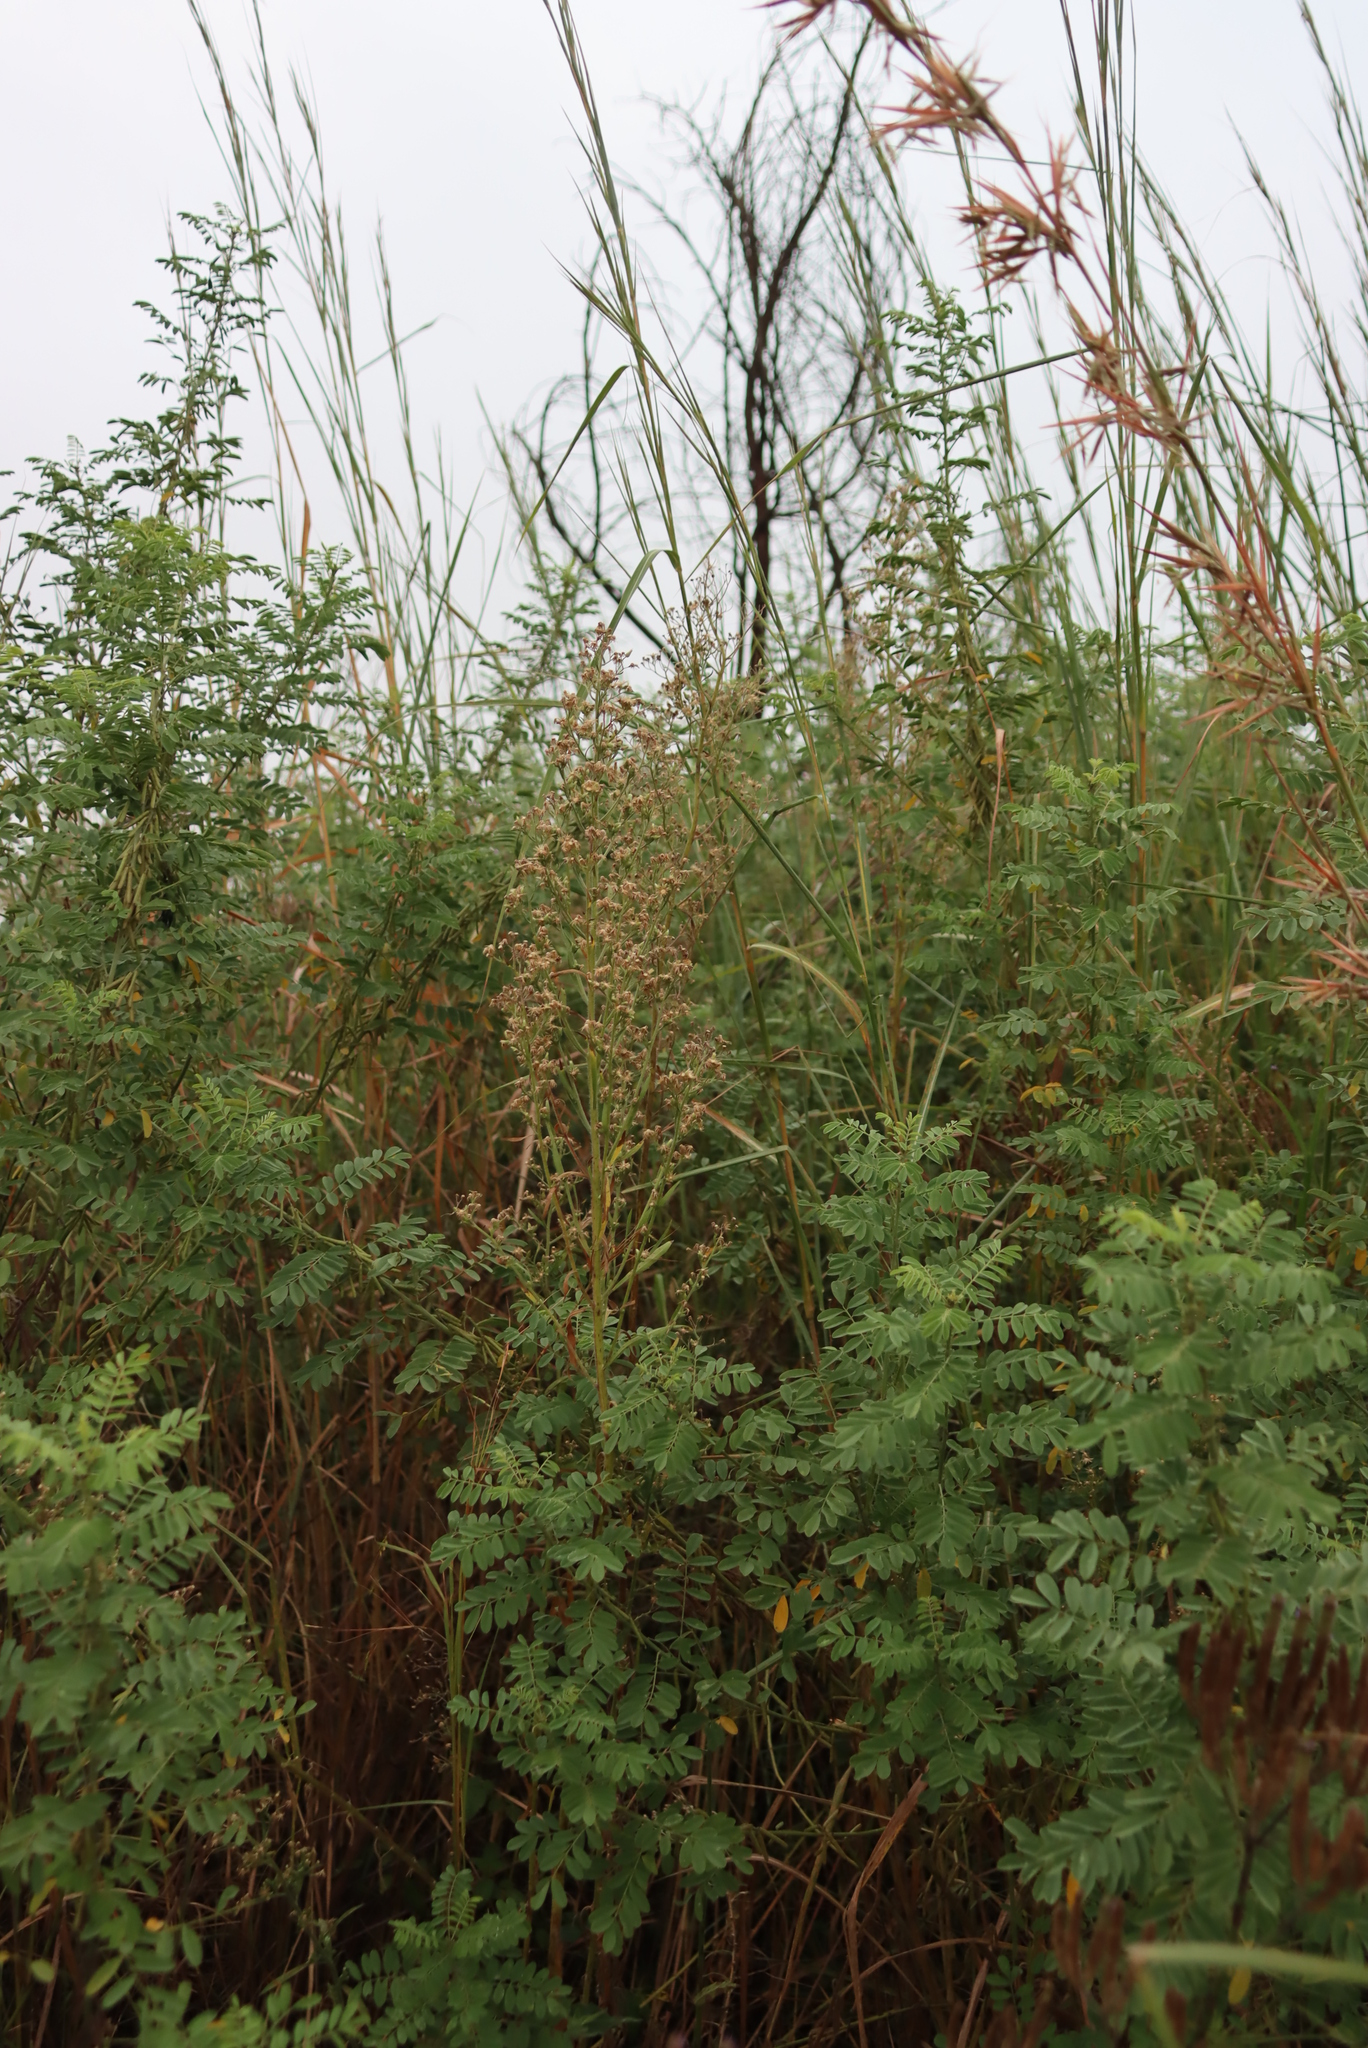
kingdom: Plantae
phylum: Tracheophyta
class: Magnoliopsida
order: Asterales
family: Asteraceae
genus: Artemisia
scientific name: Artemisia afra
